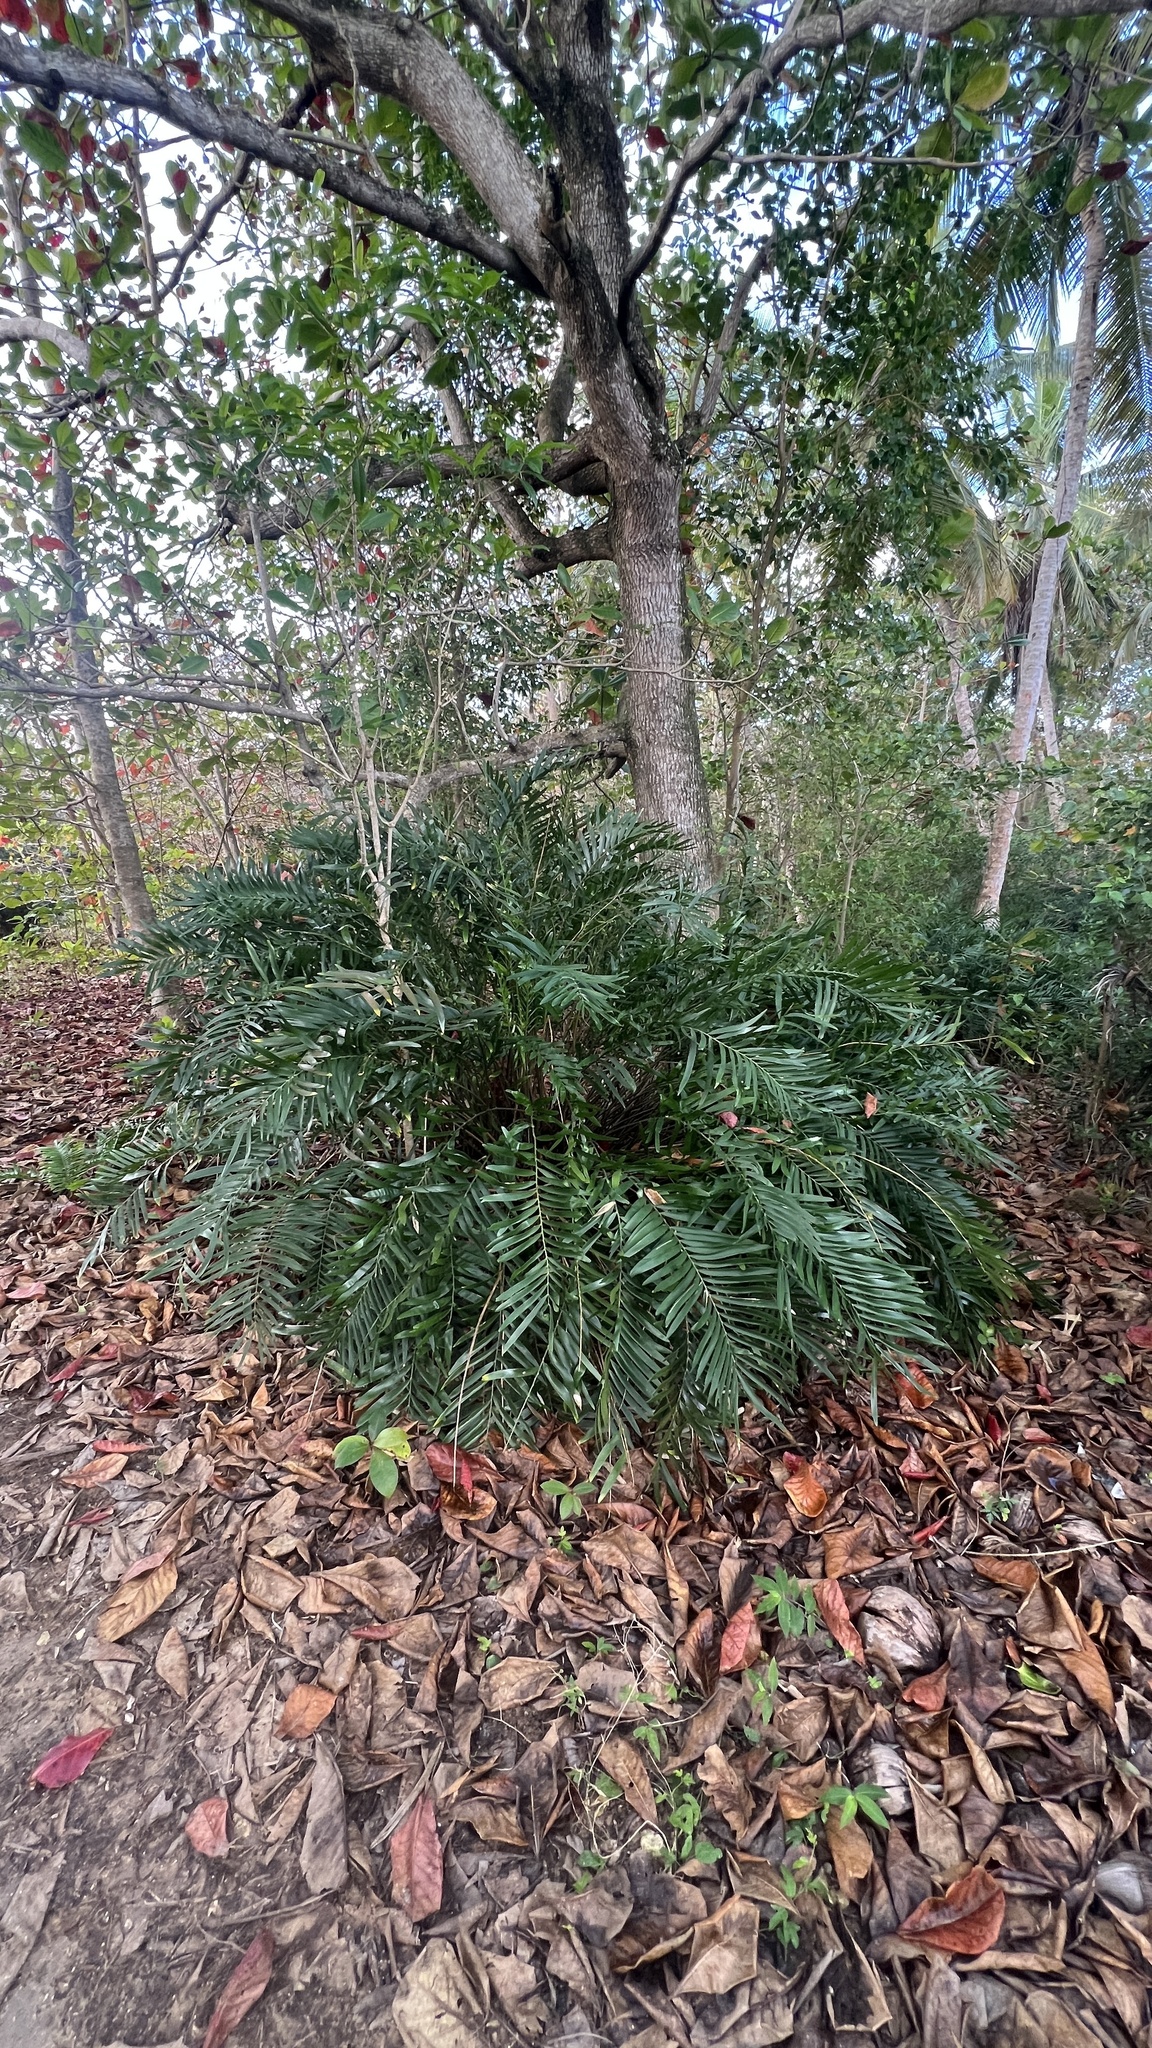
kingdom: Plantae
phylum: Tracheophyta
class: Cycadopsida
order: Cycadales
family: Zamiaceae
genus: Zamia
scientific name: Zamia pumila
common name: Florida arrowroot
